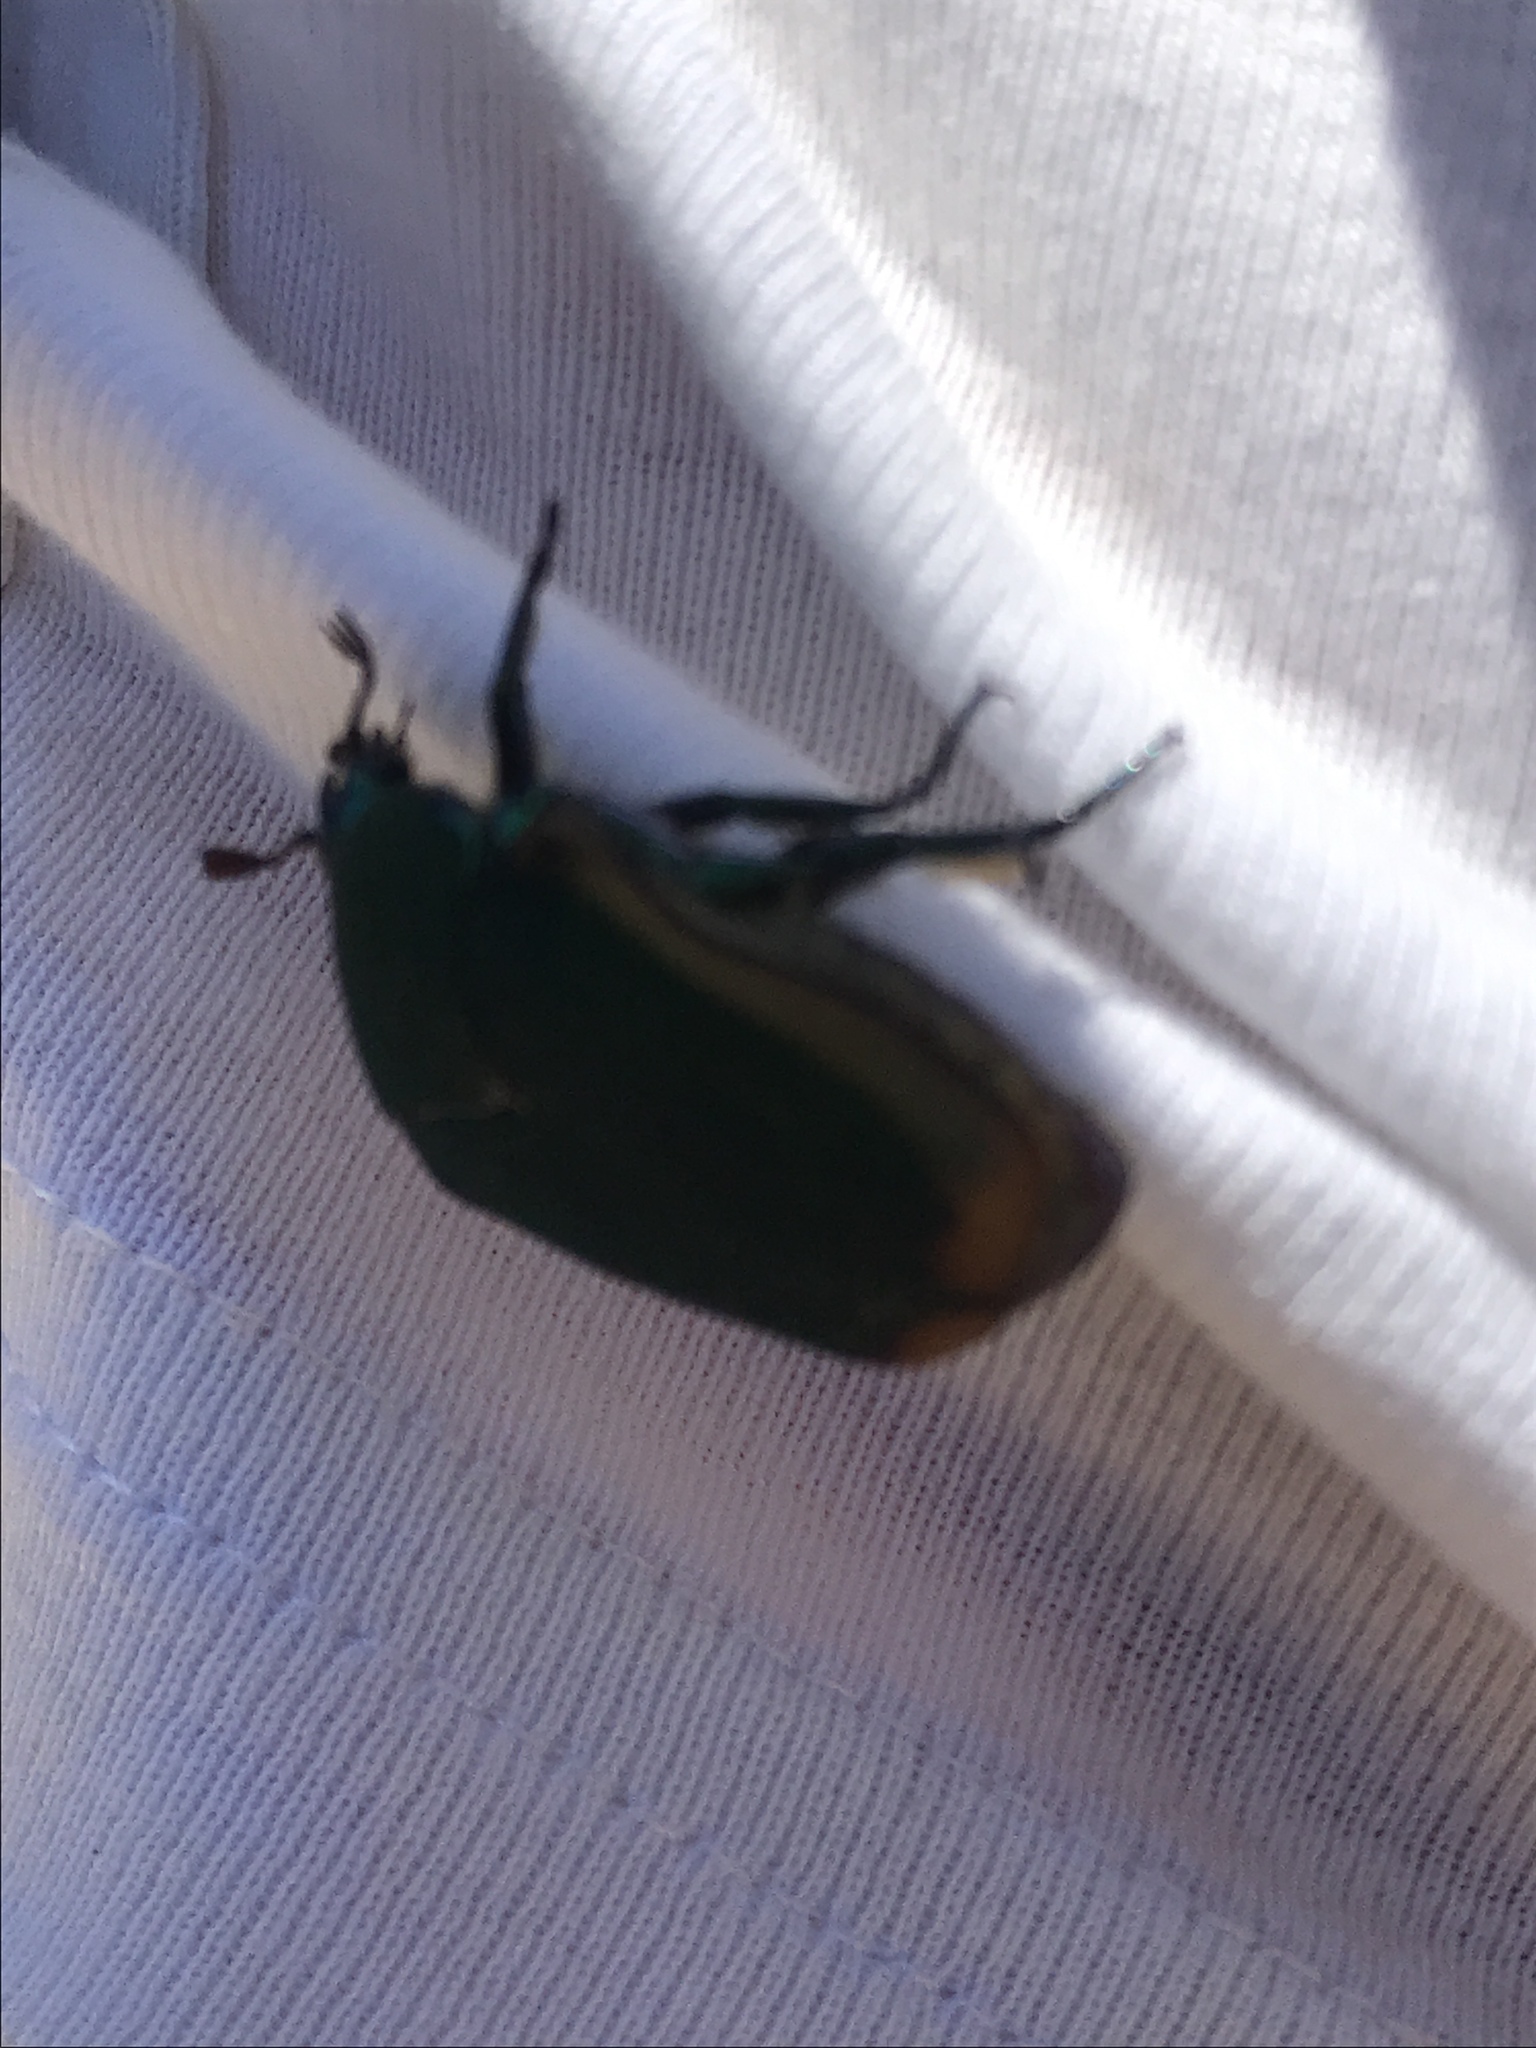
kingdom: Animalia
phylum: Arthropoda
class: Insecta
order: Coleoptera
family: Scarabaeidae
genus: Cotinis
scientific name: Cotinis mutabilis
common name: Figeater beetle
